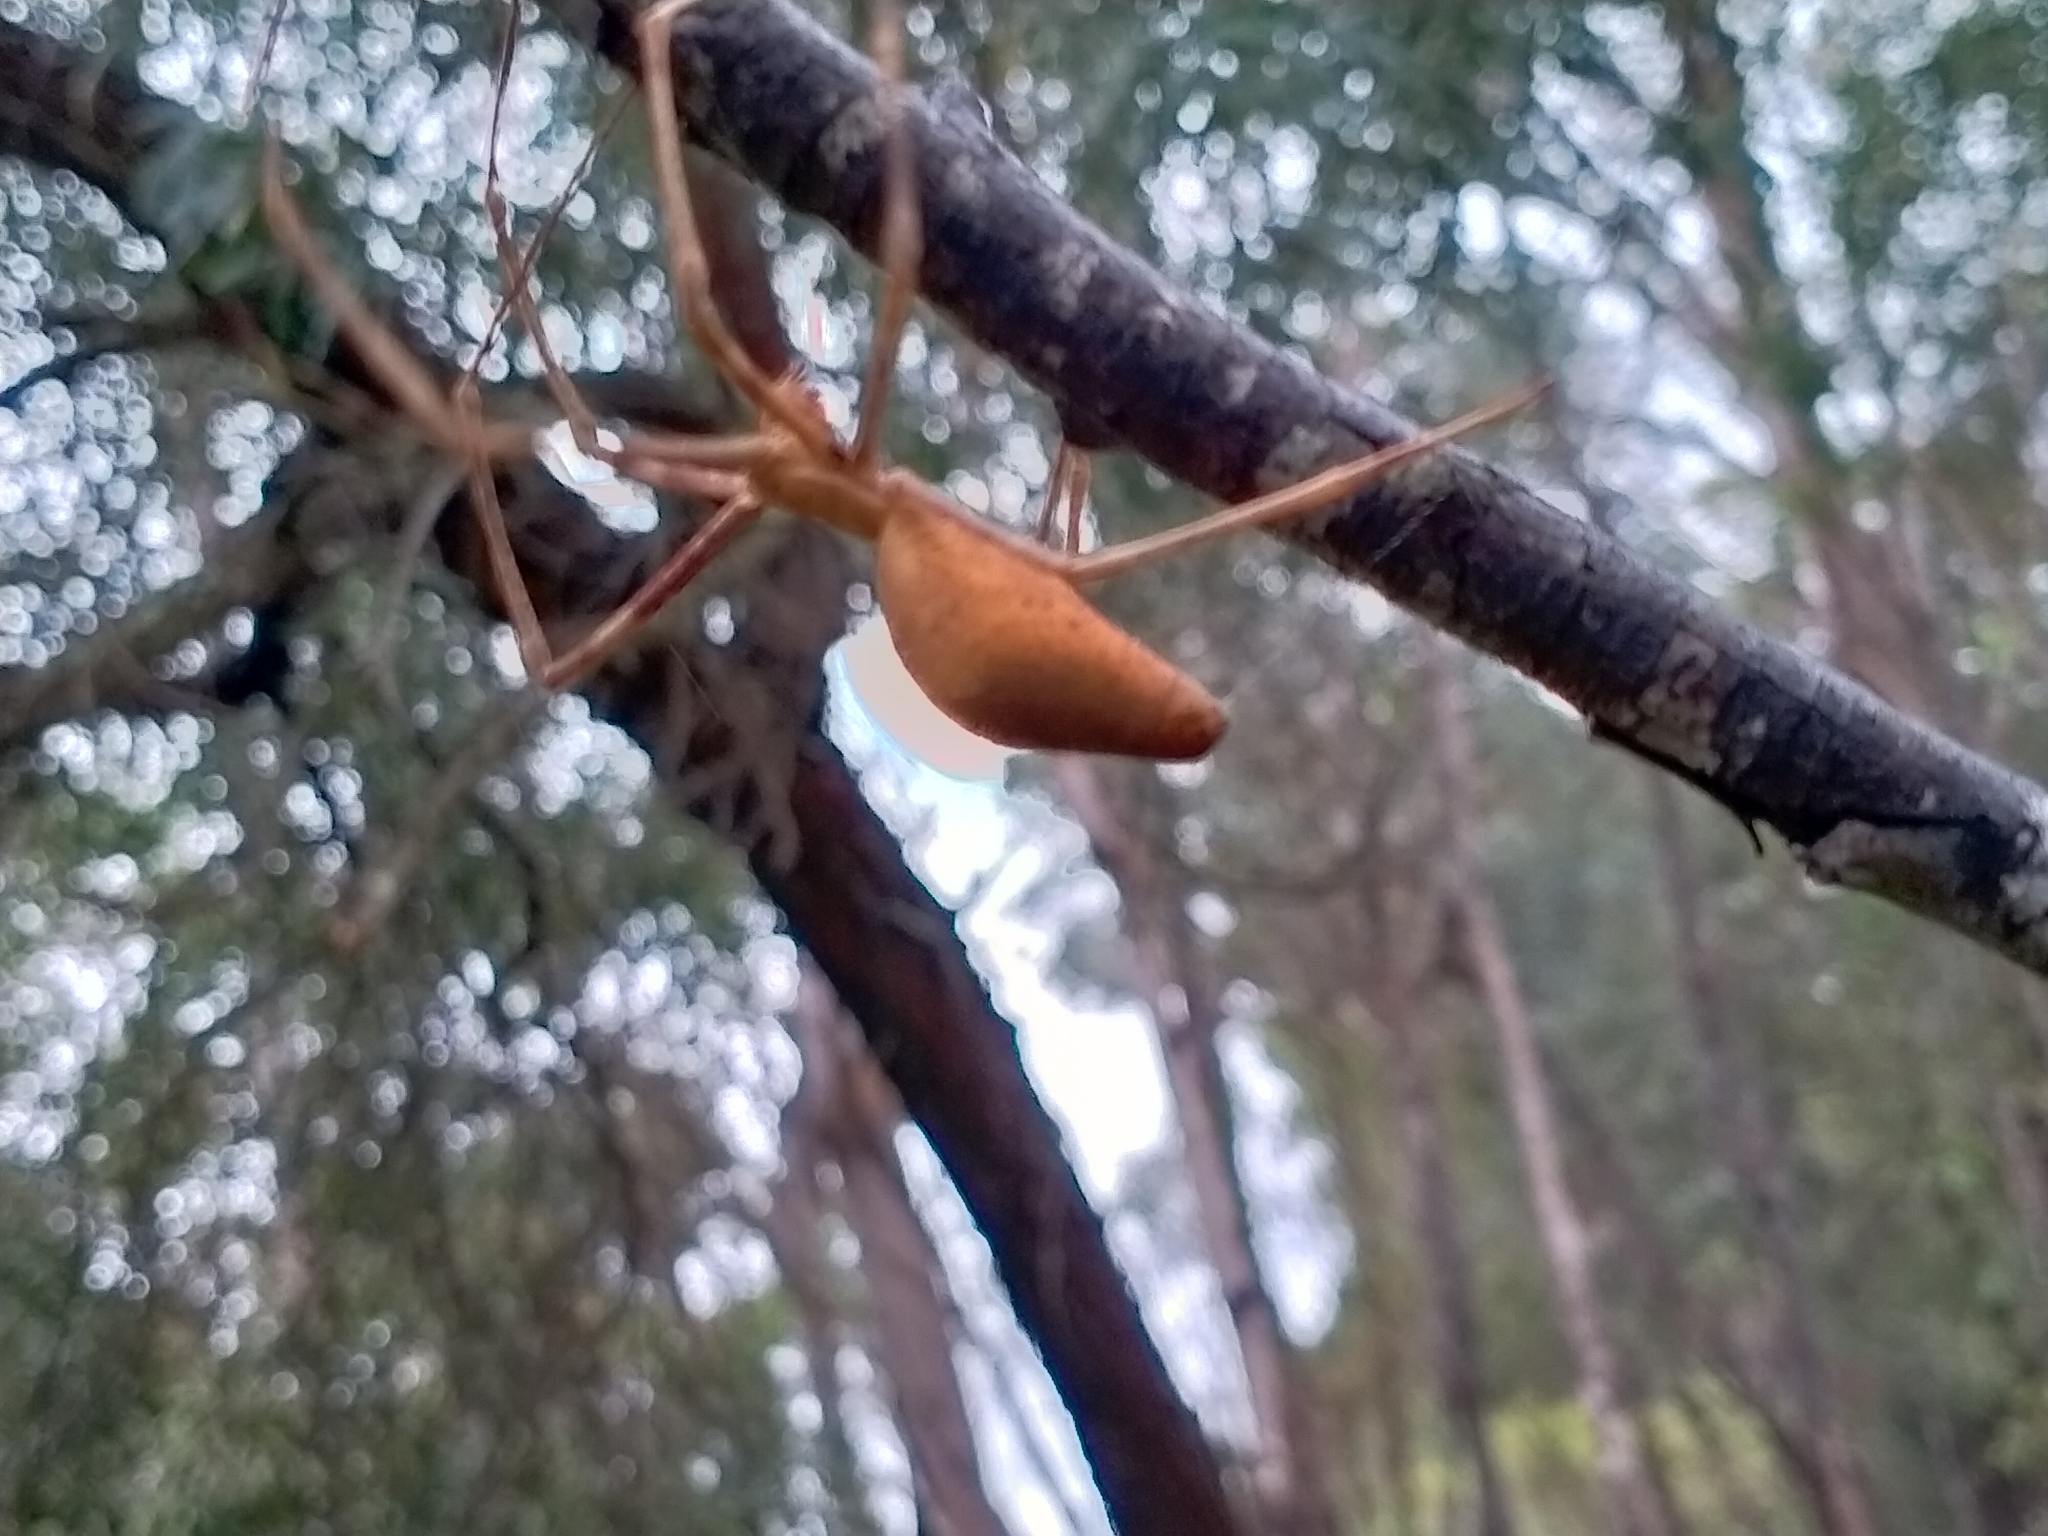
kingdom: Animalia
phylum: Arthropoda
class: Arachnida
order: Araneae
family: Deinopidae
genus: Deinopis
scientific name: Deinopis subrufa
